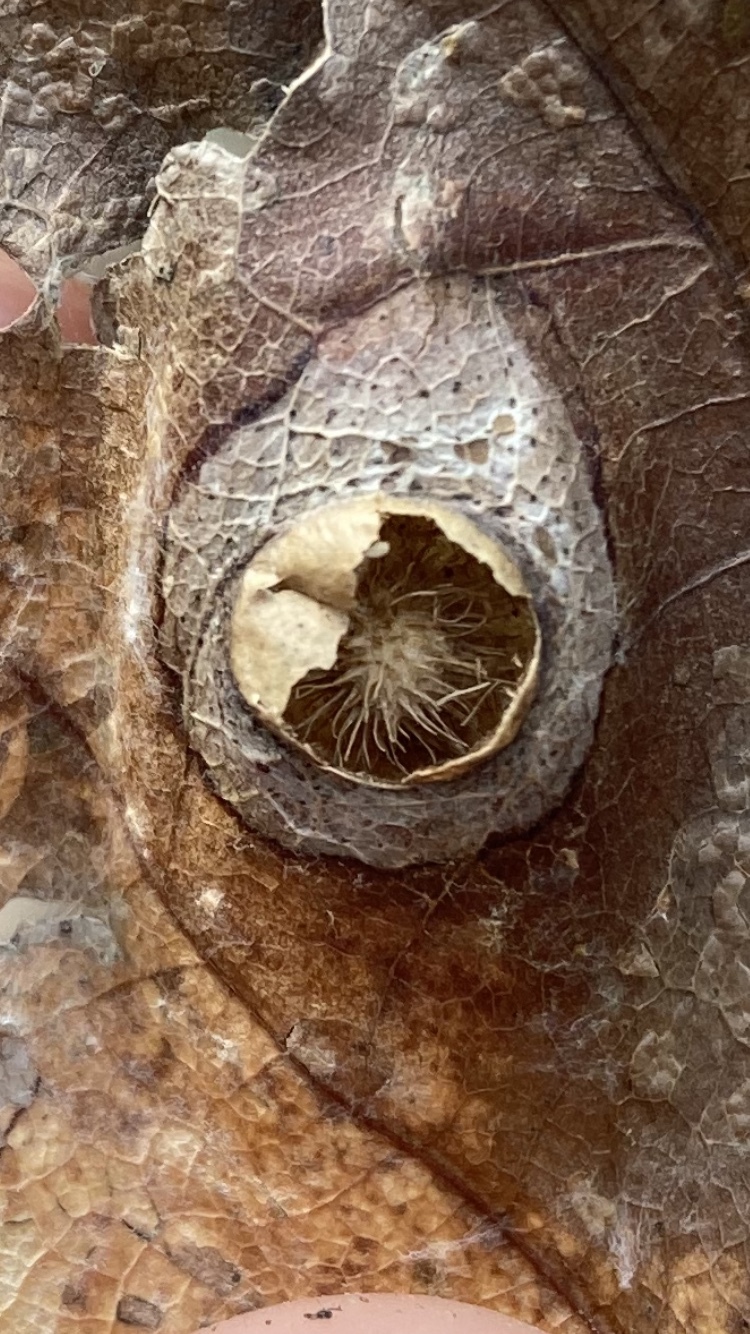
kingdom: Animalia
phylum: Arthropoda
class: Insecta
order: Hymenoptera
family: Cynipidae
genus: Amphibolips
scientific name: Amphibolips
